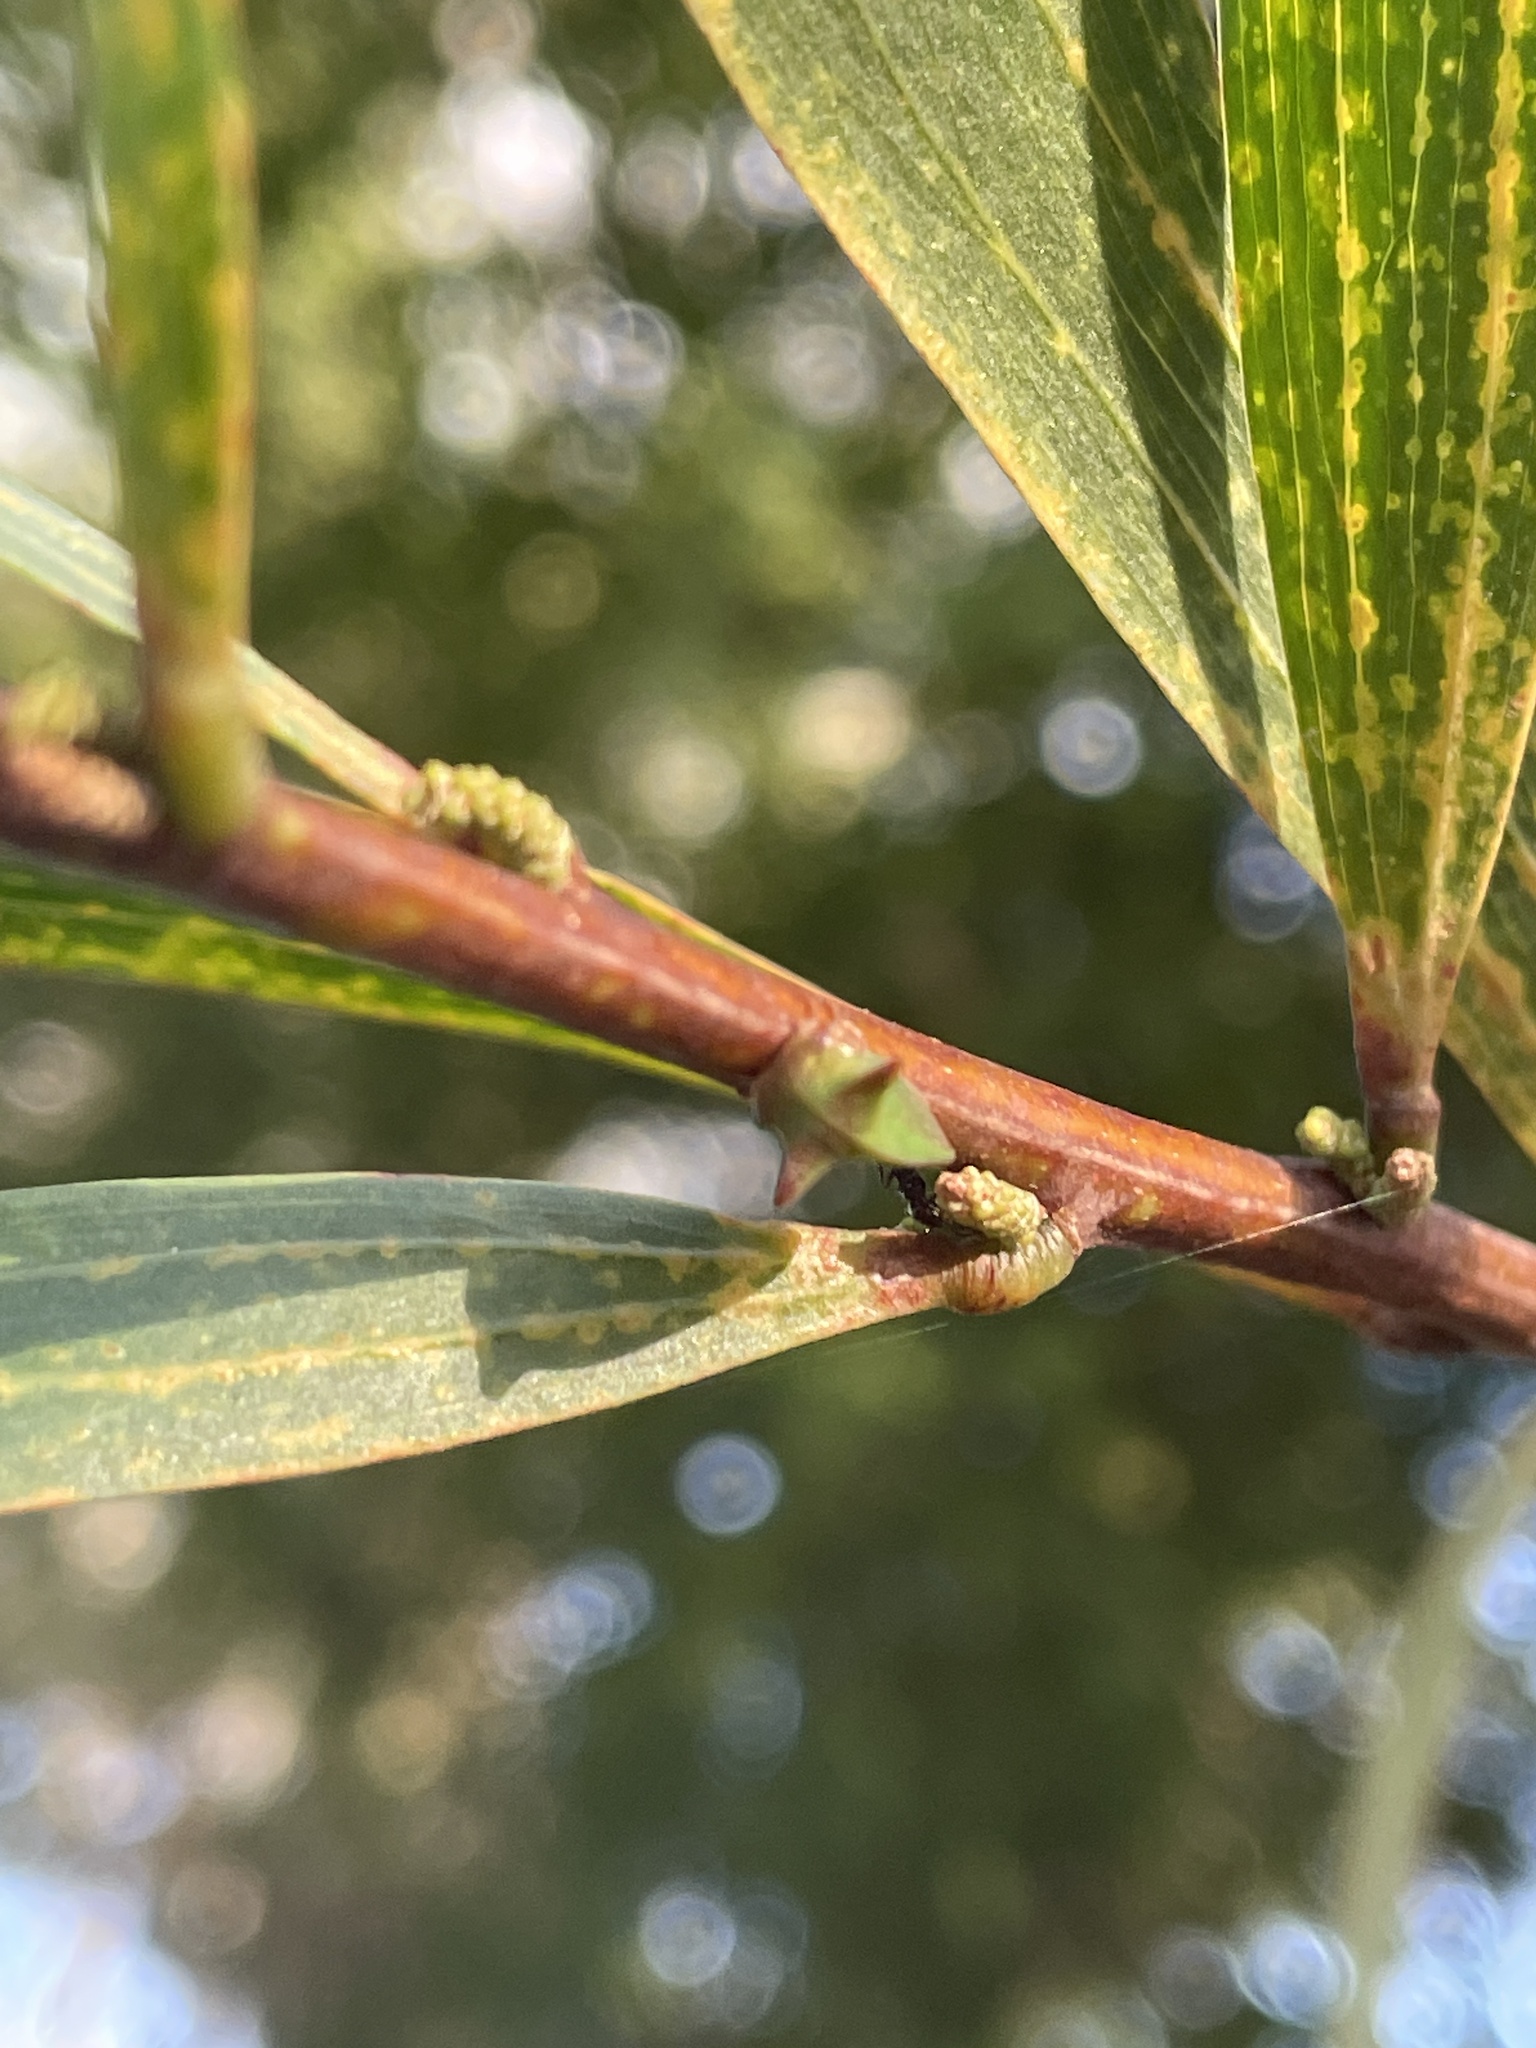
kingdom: Animalia
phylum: Arthropoda
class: Insecta
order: Hemiptera
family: Membracidae
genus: Sextius
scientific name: Sextius virescens
